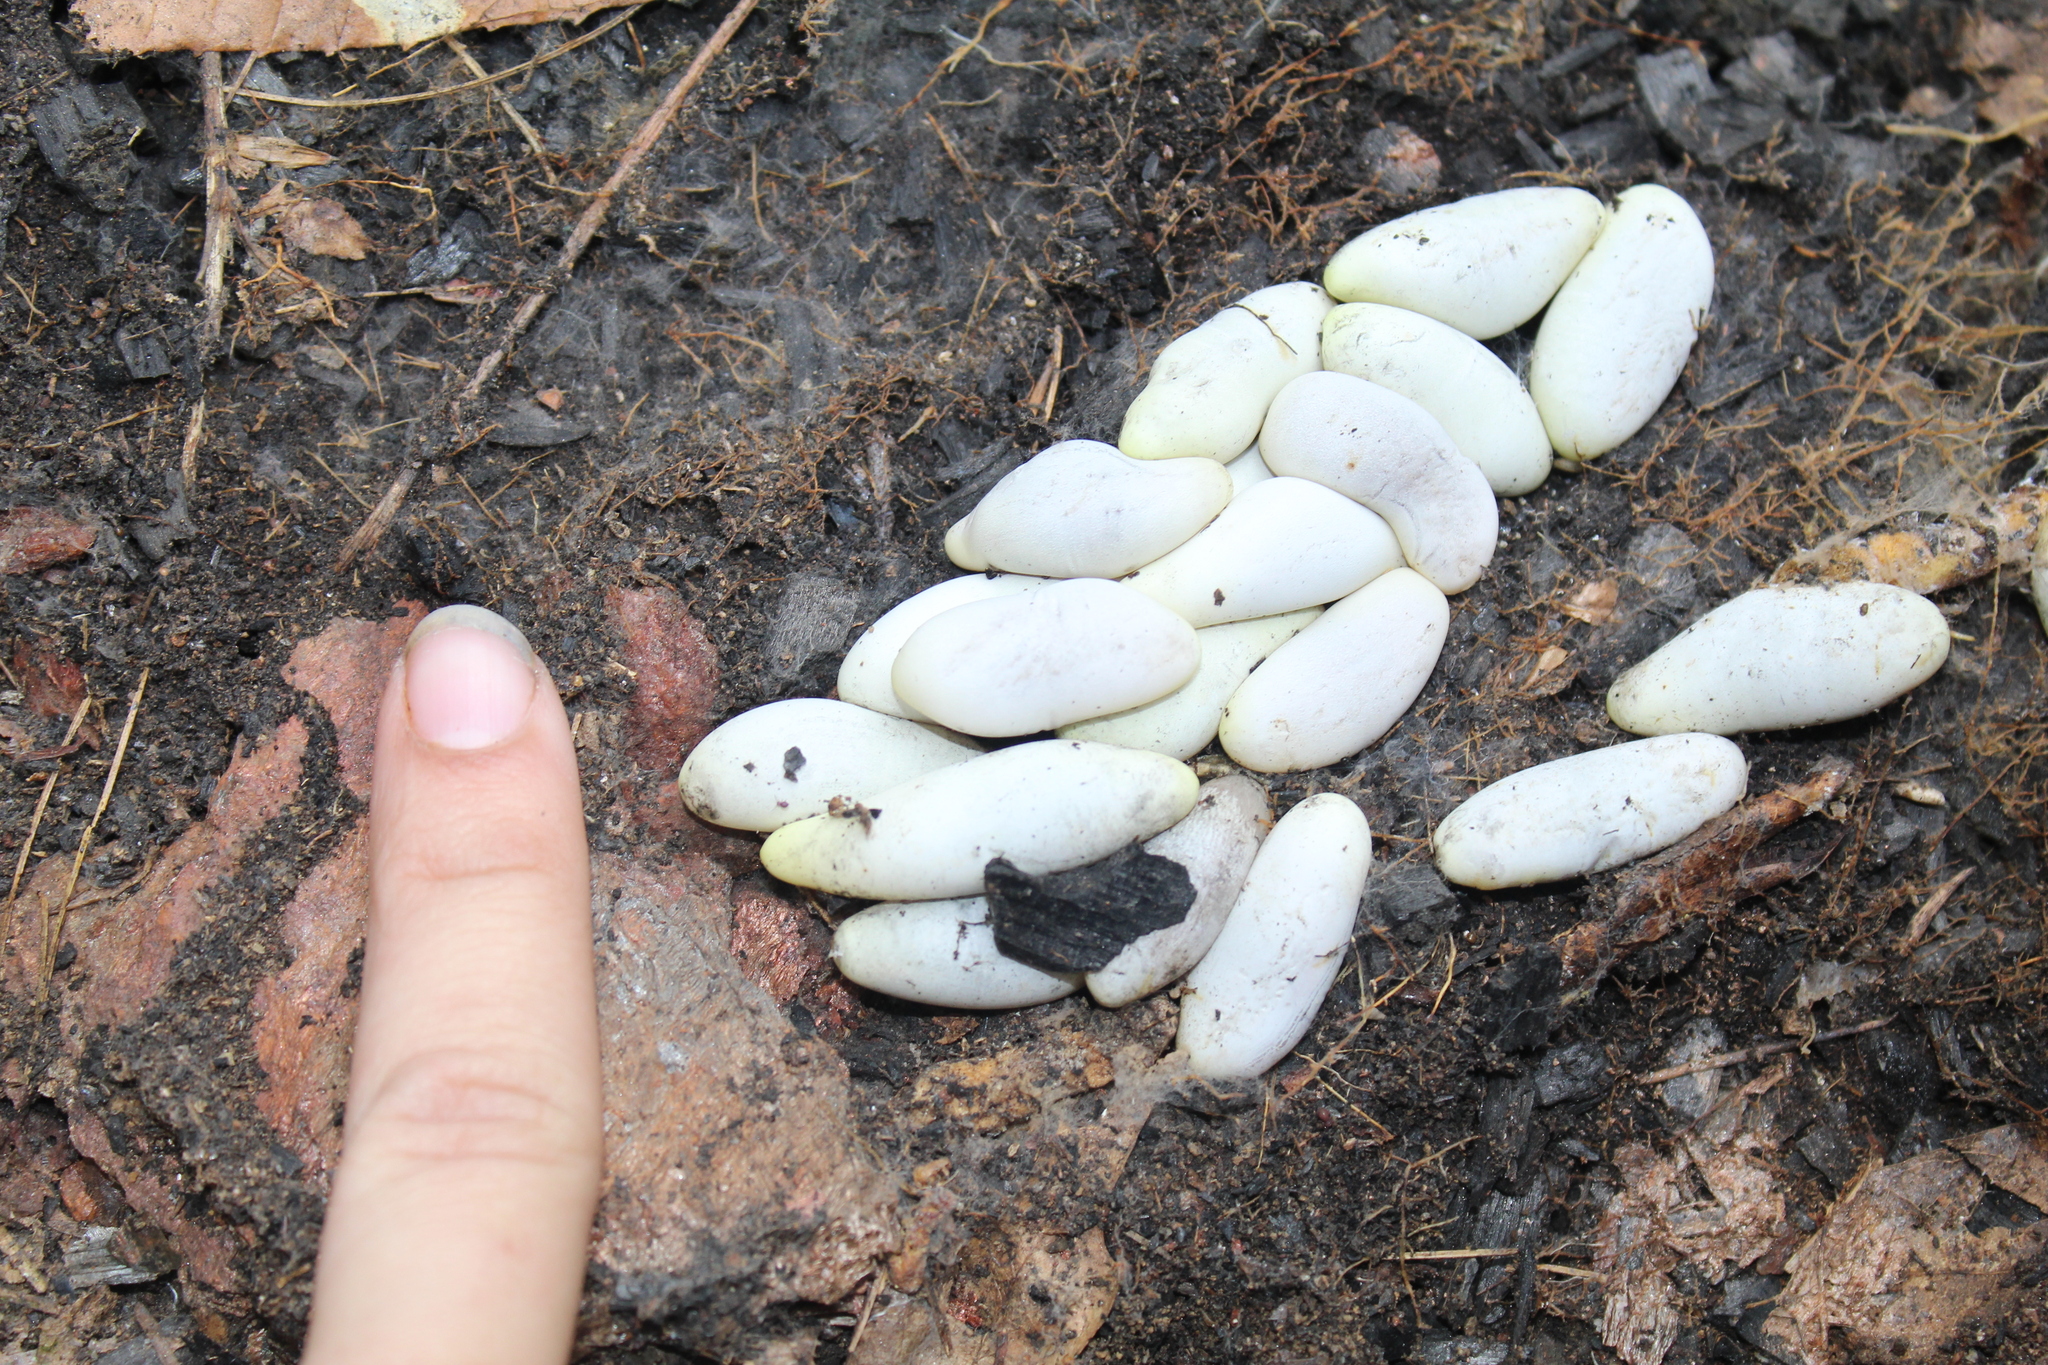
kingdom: Animalia
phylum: Chordata
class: Squamata
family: Colubridae
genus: Diadophis
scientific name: Diadophis punctatus
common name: Ringneck snake
